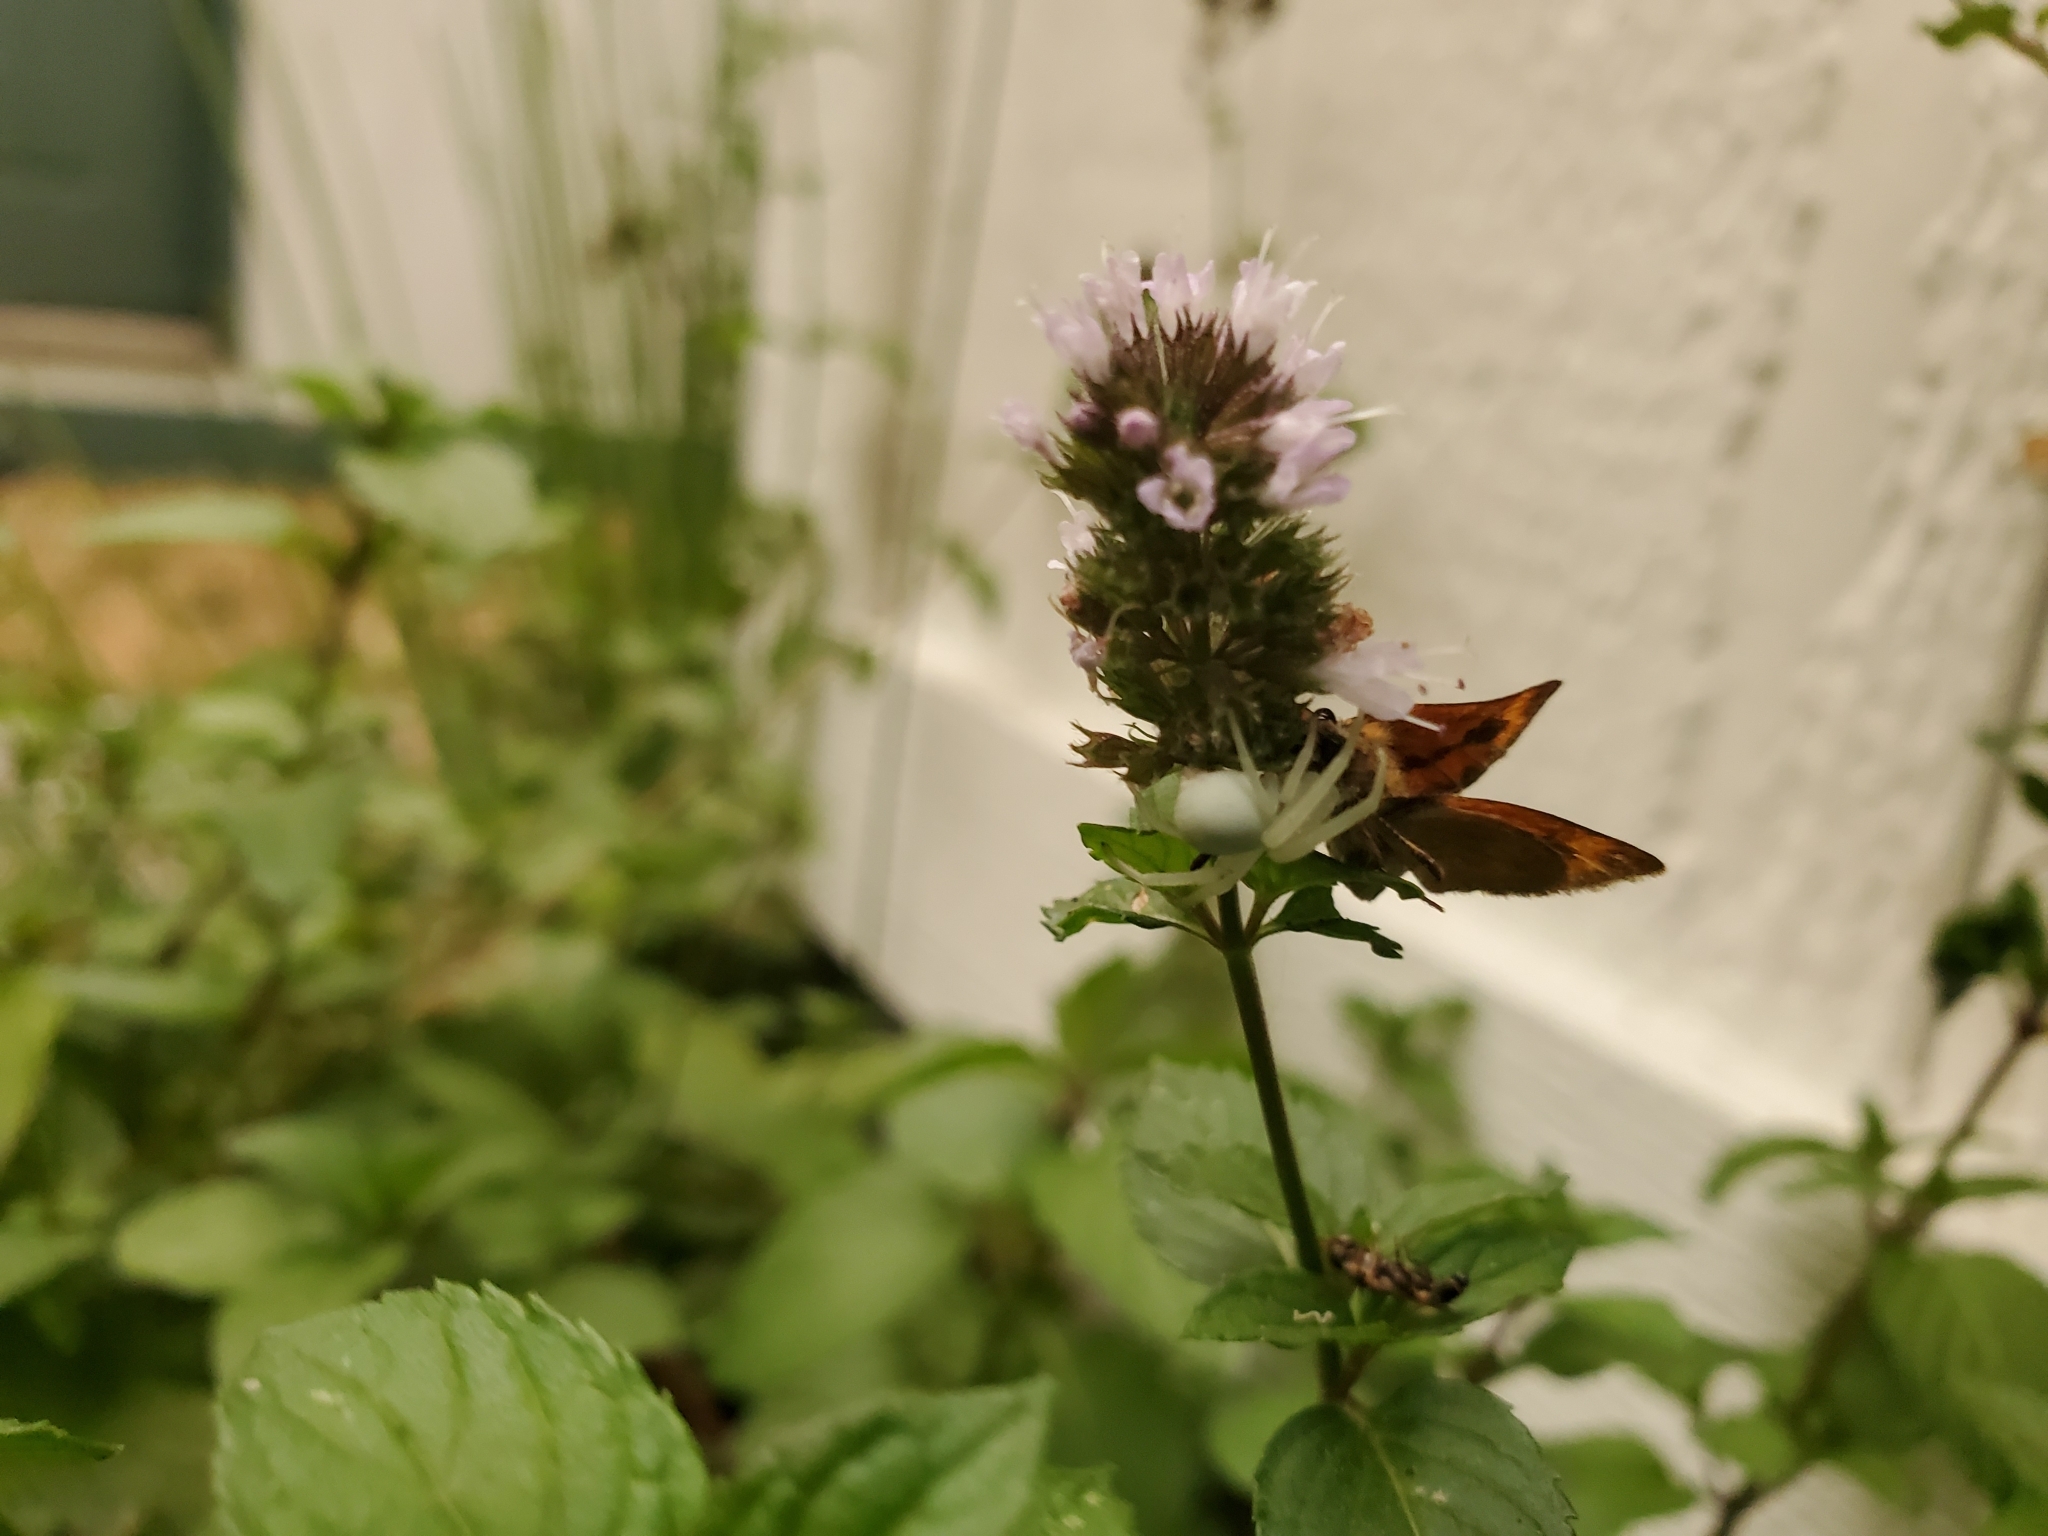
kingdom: Animalia
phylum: Arthropoda
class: Arachnida
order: Araneae
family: Thomisidae
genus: Misumena
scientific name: Misumena vatia
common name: Goldenrod crab spider
